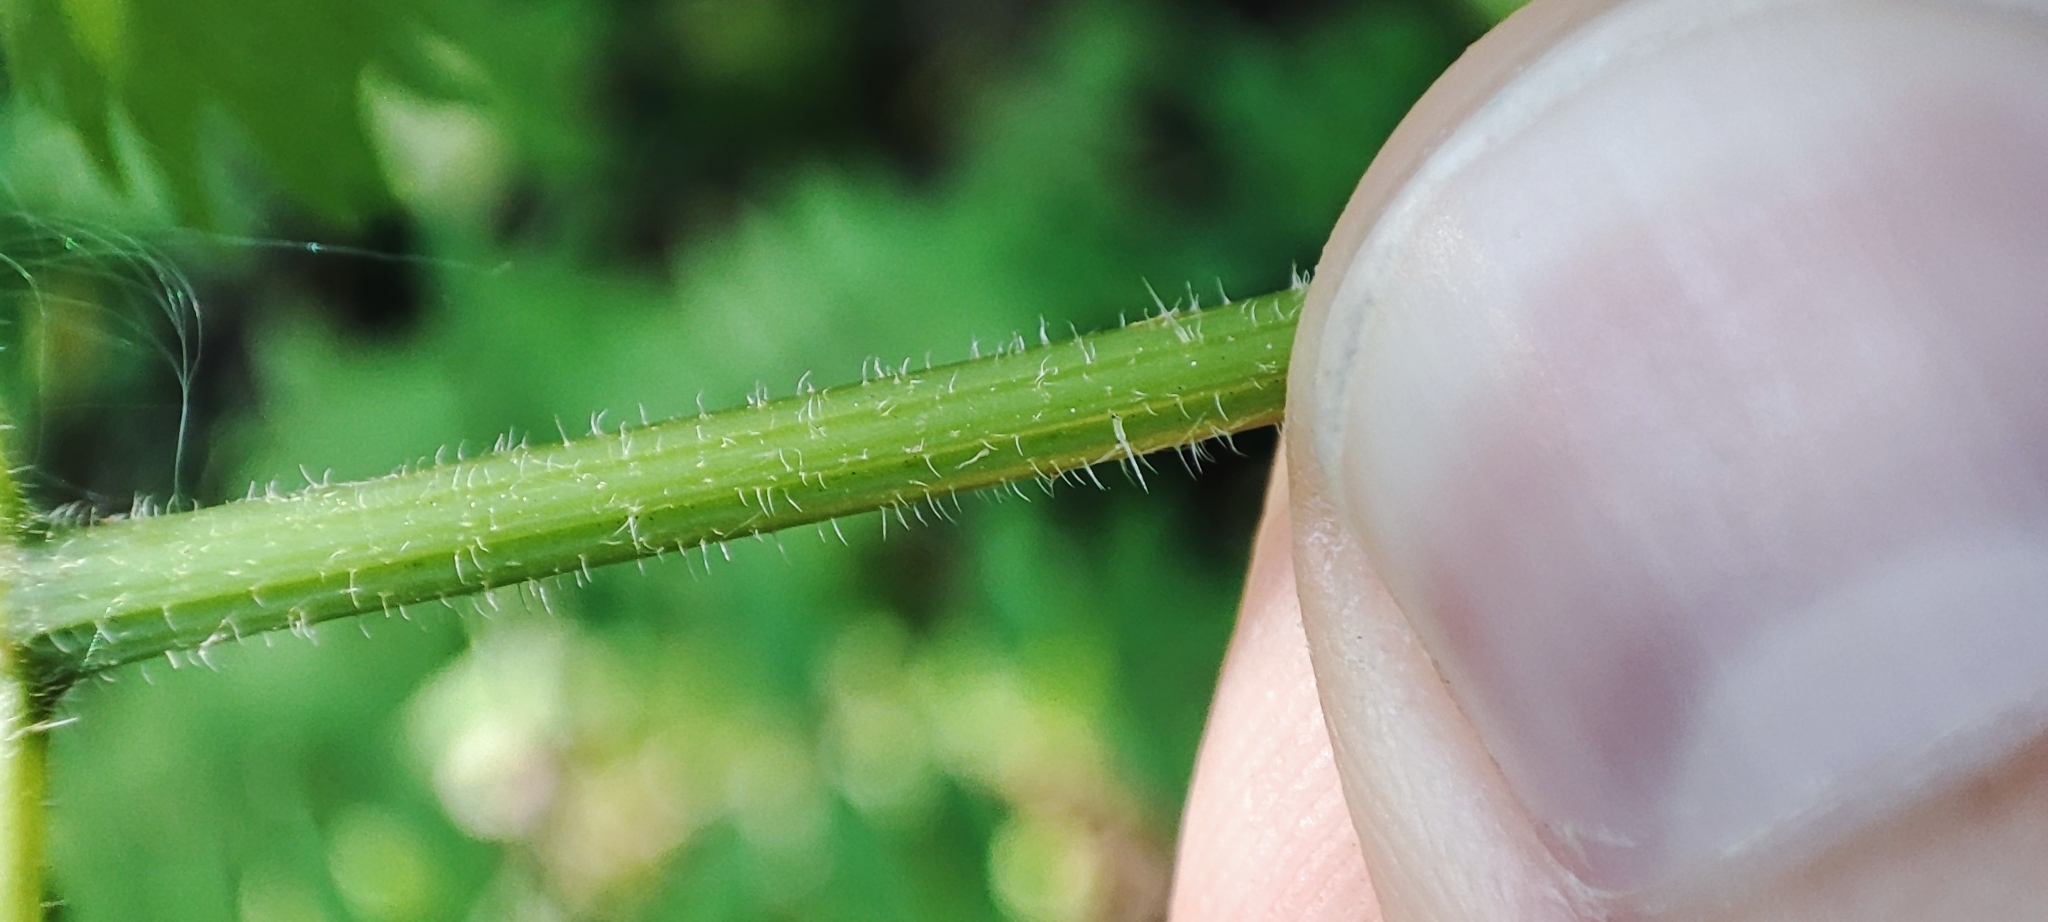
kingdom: Plantae
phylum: Tracheophyta
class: Magnoliopsida
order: Rosales
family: Urticaceae
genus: Urtica
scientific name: Urtica dioica
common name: Common nettle
